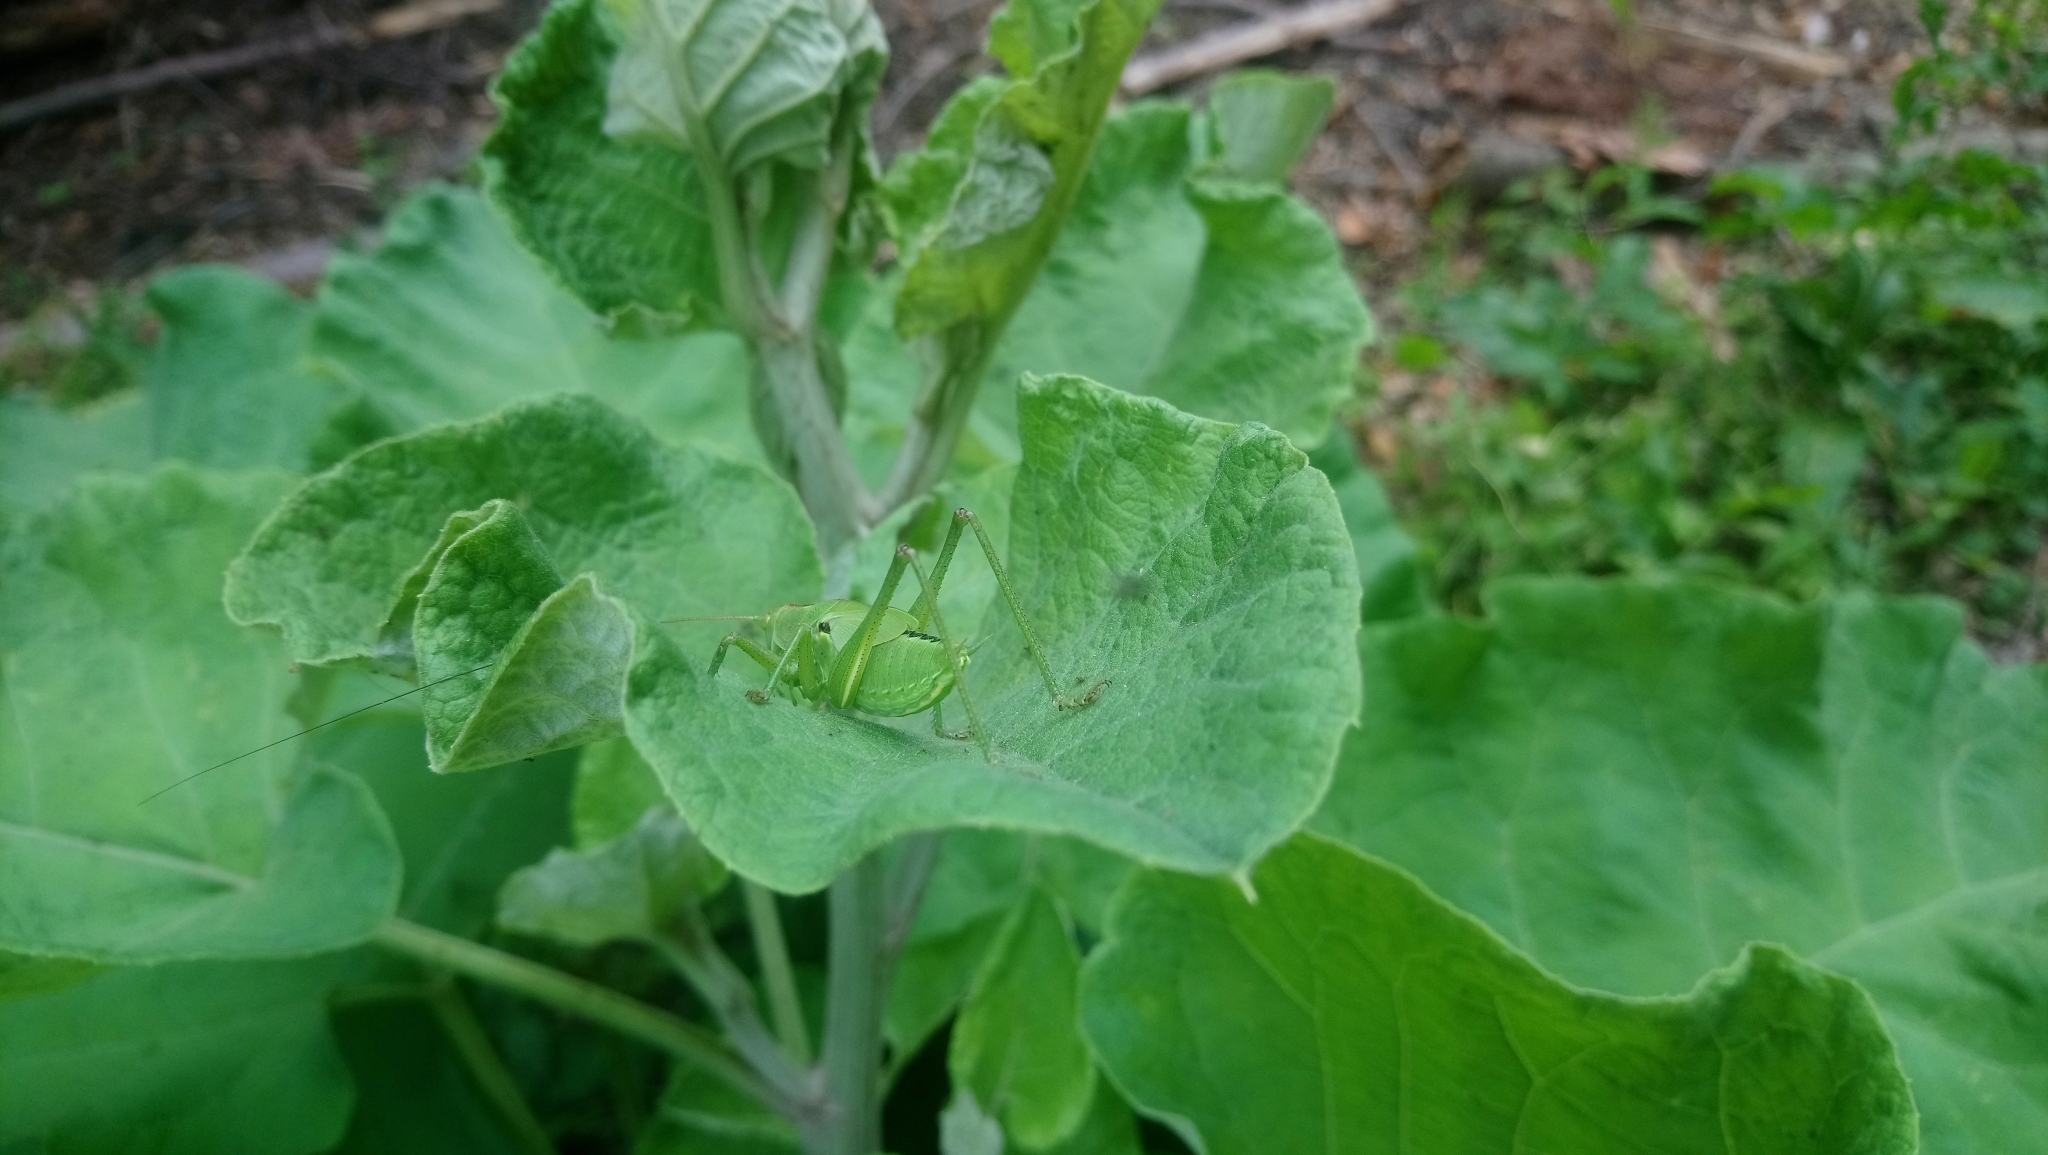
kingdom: Animalia
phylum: Arthropoda
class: Insecta
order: Orthoptera
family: Tettigoniidae
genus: Tettigonia
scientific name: Tettigonia viridissima
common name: Great green bush-cricket
